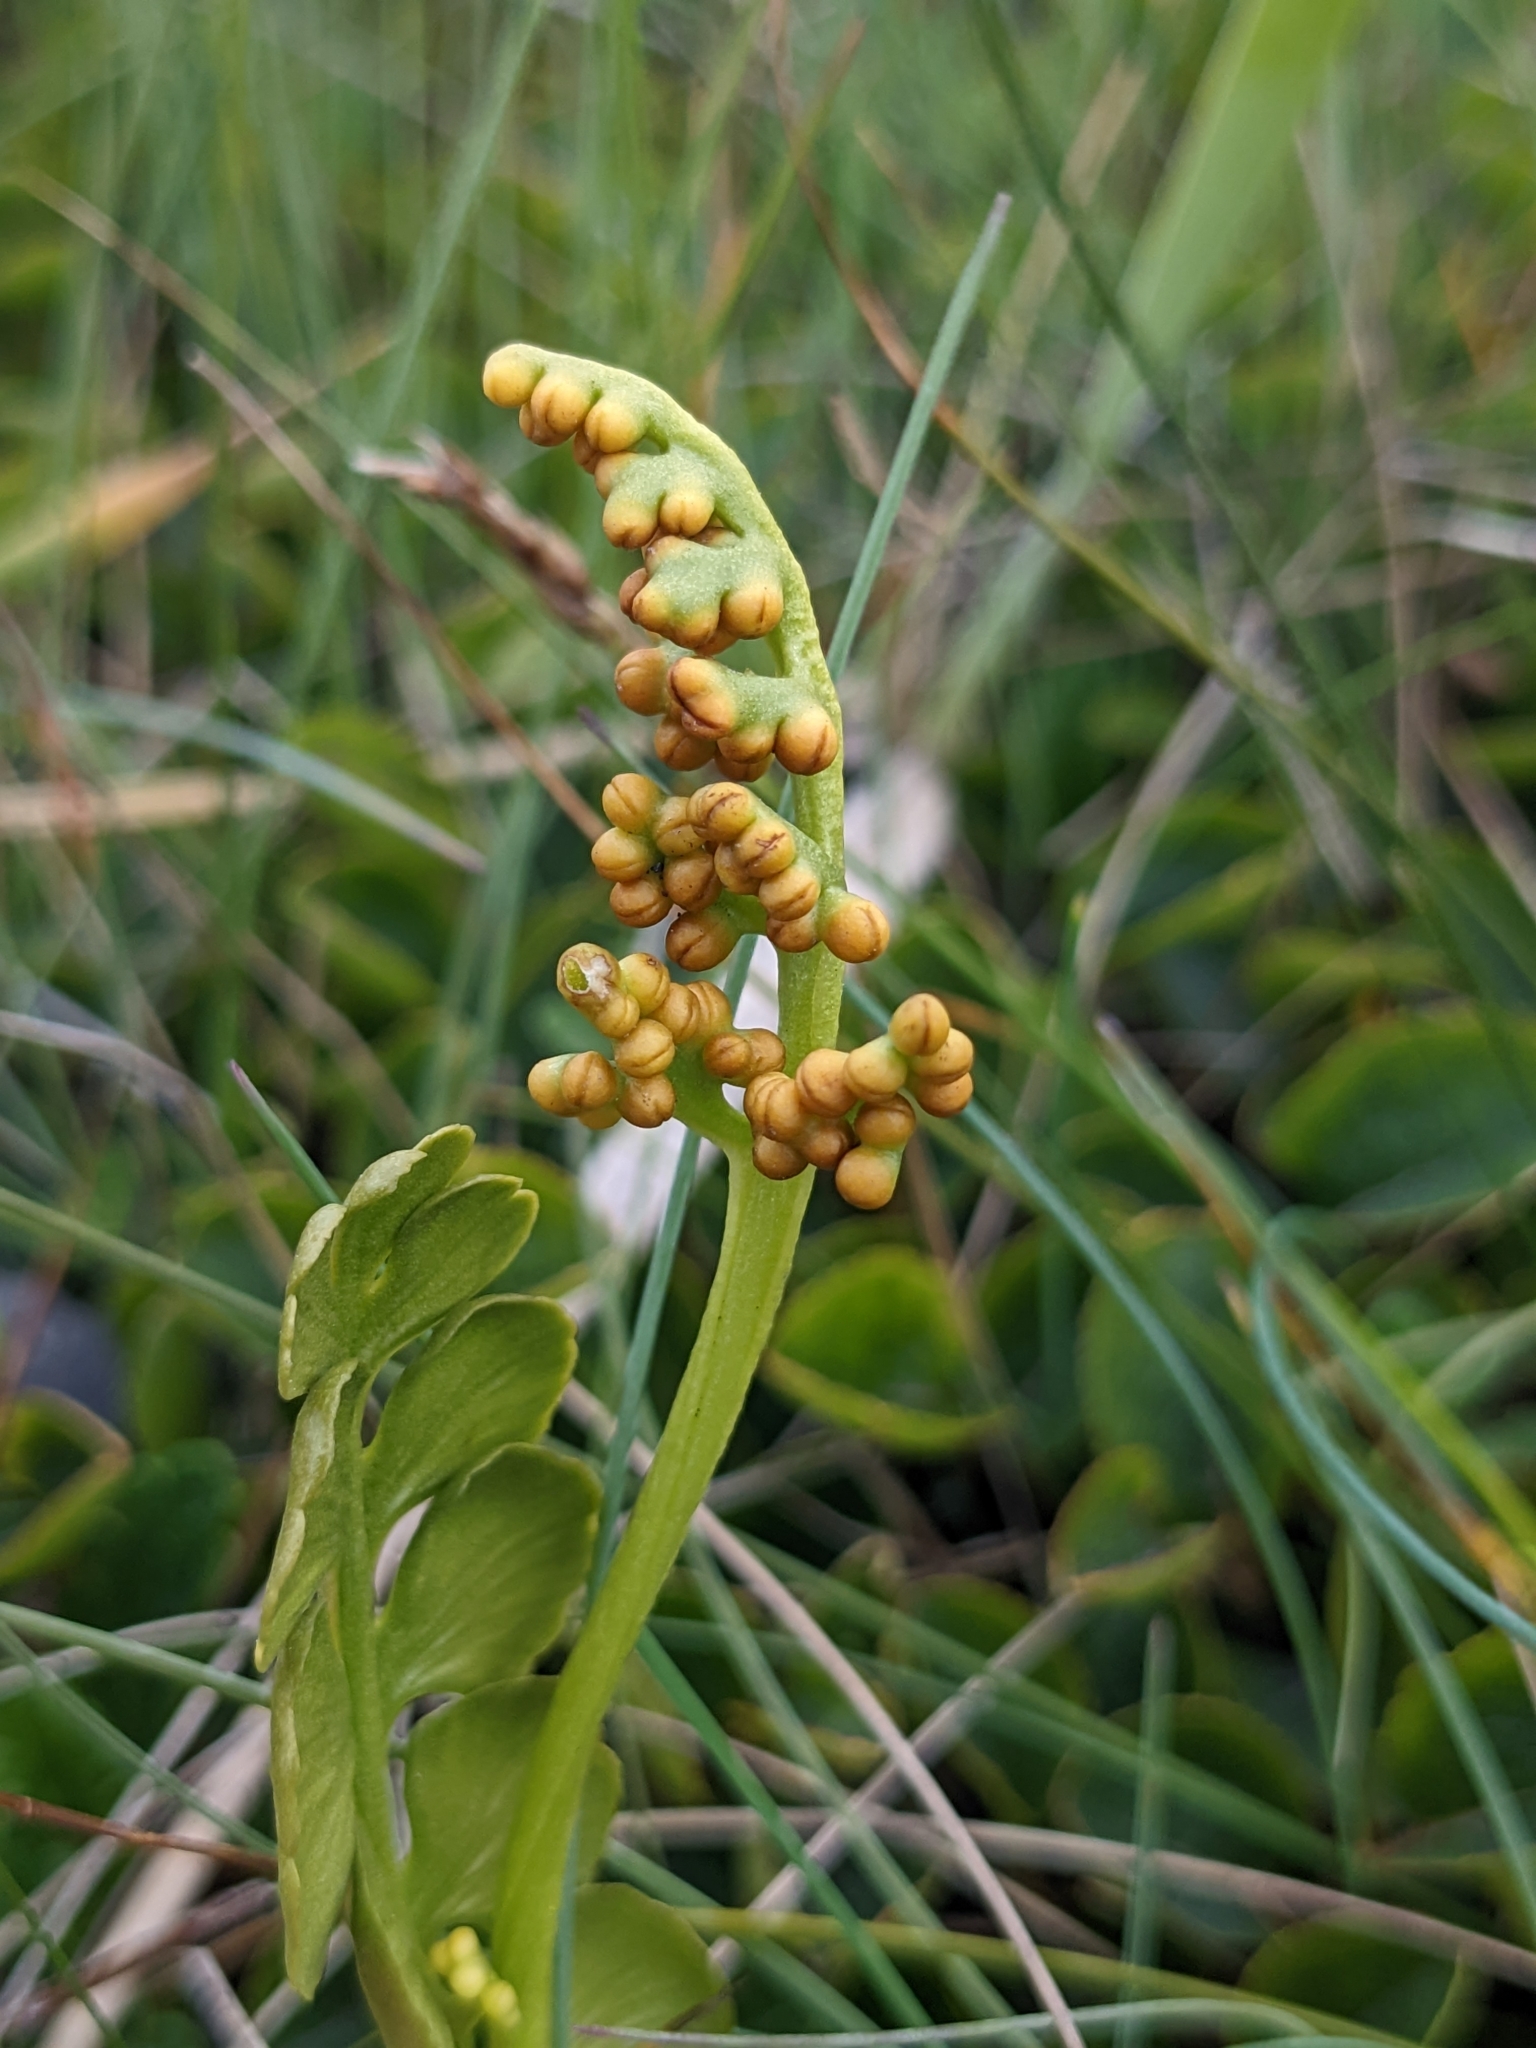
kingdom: Plantae
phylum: Tracheophyta
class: Polypodiopsida
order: Ophioglossales
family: Ophioglossaceae
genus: Botrychium
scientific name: Botrychium lunaria
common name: Moonwort
